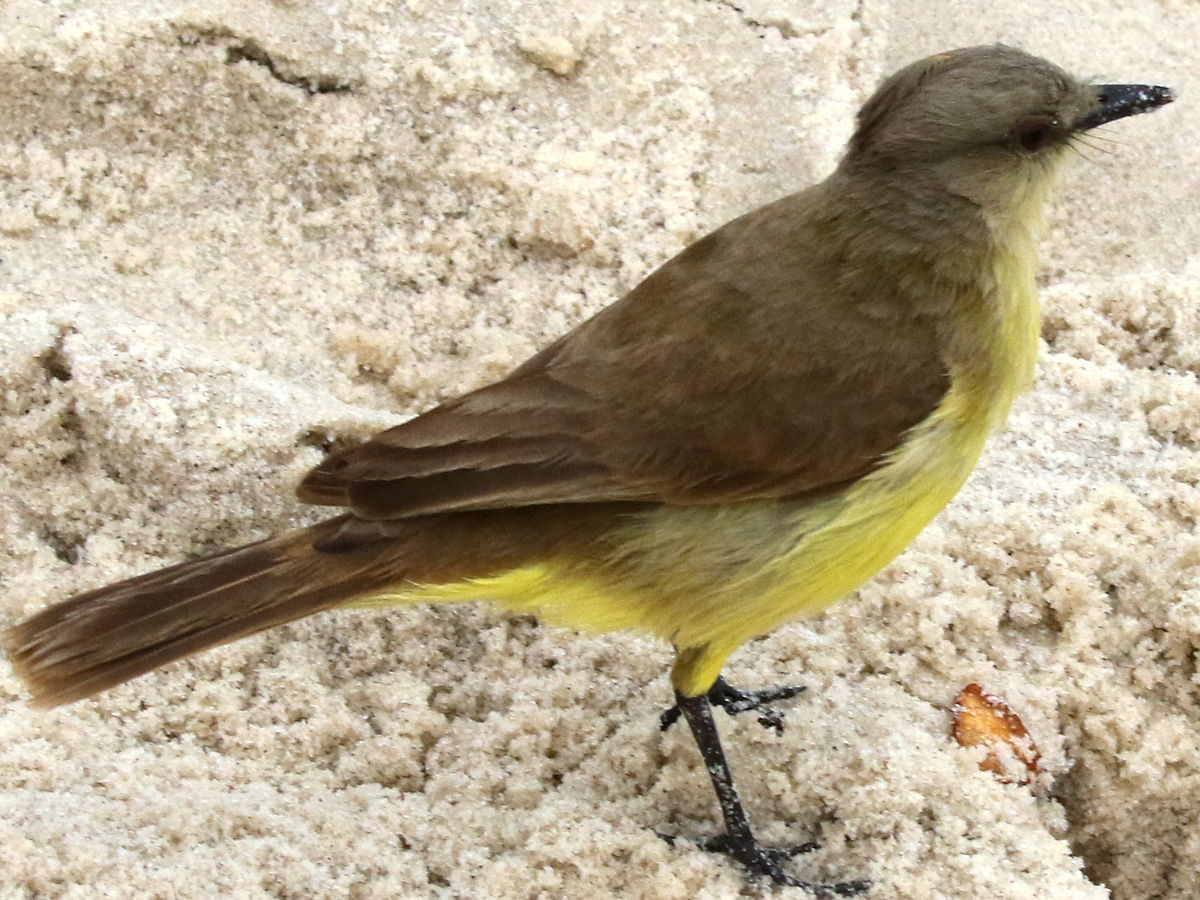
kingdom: Animalia
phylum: Chordata
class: Aves
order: Passeriformes
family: Tyrannidae
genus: Machetornis
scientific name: Machetornis rixosa
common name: Cattle tyrant
